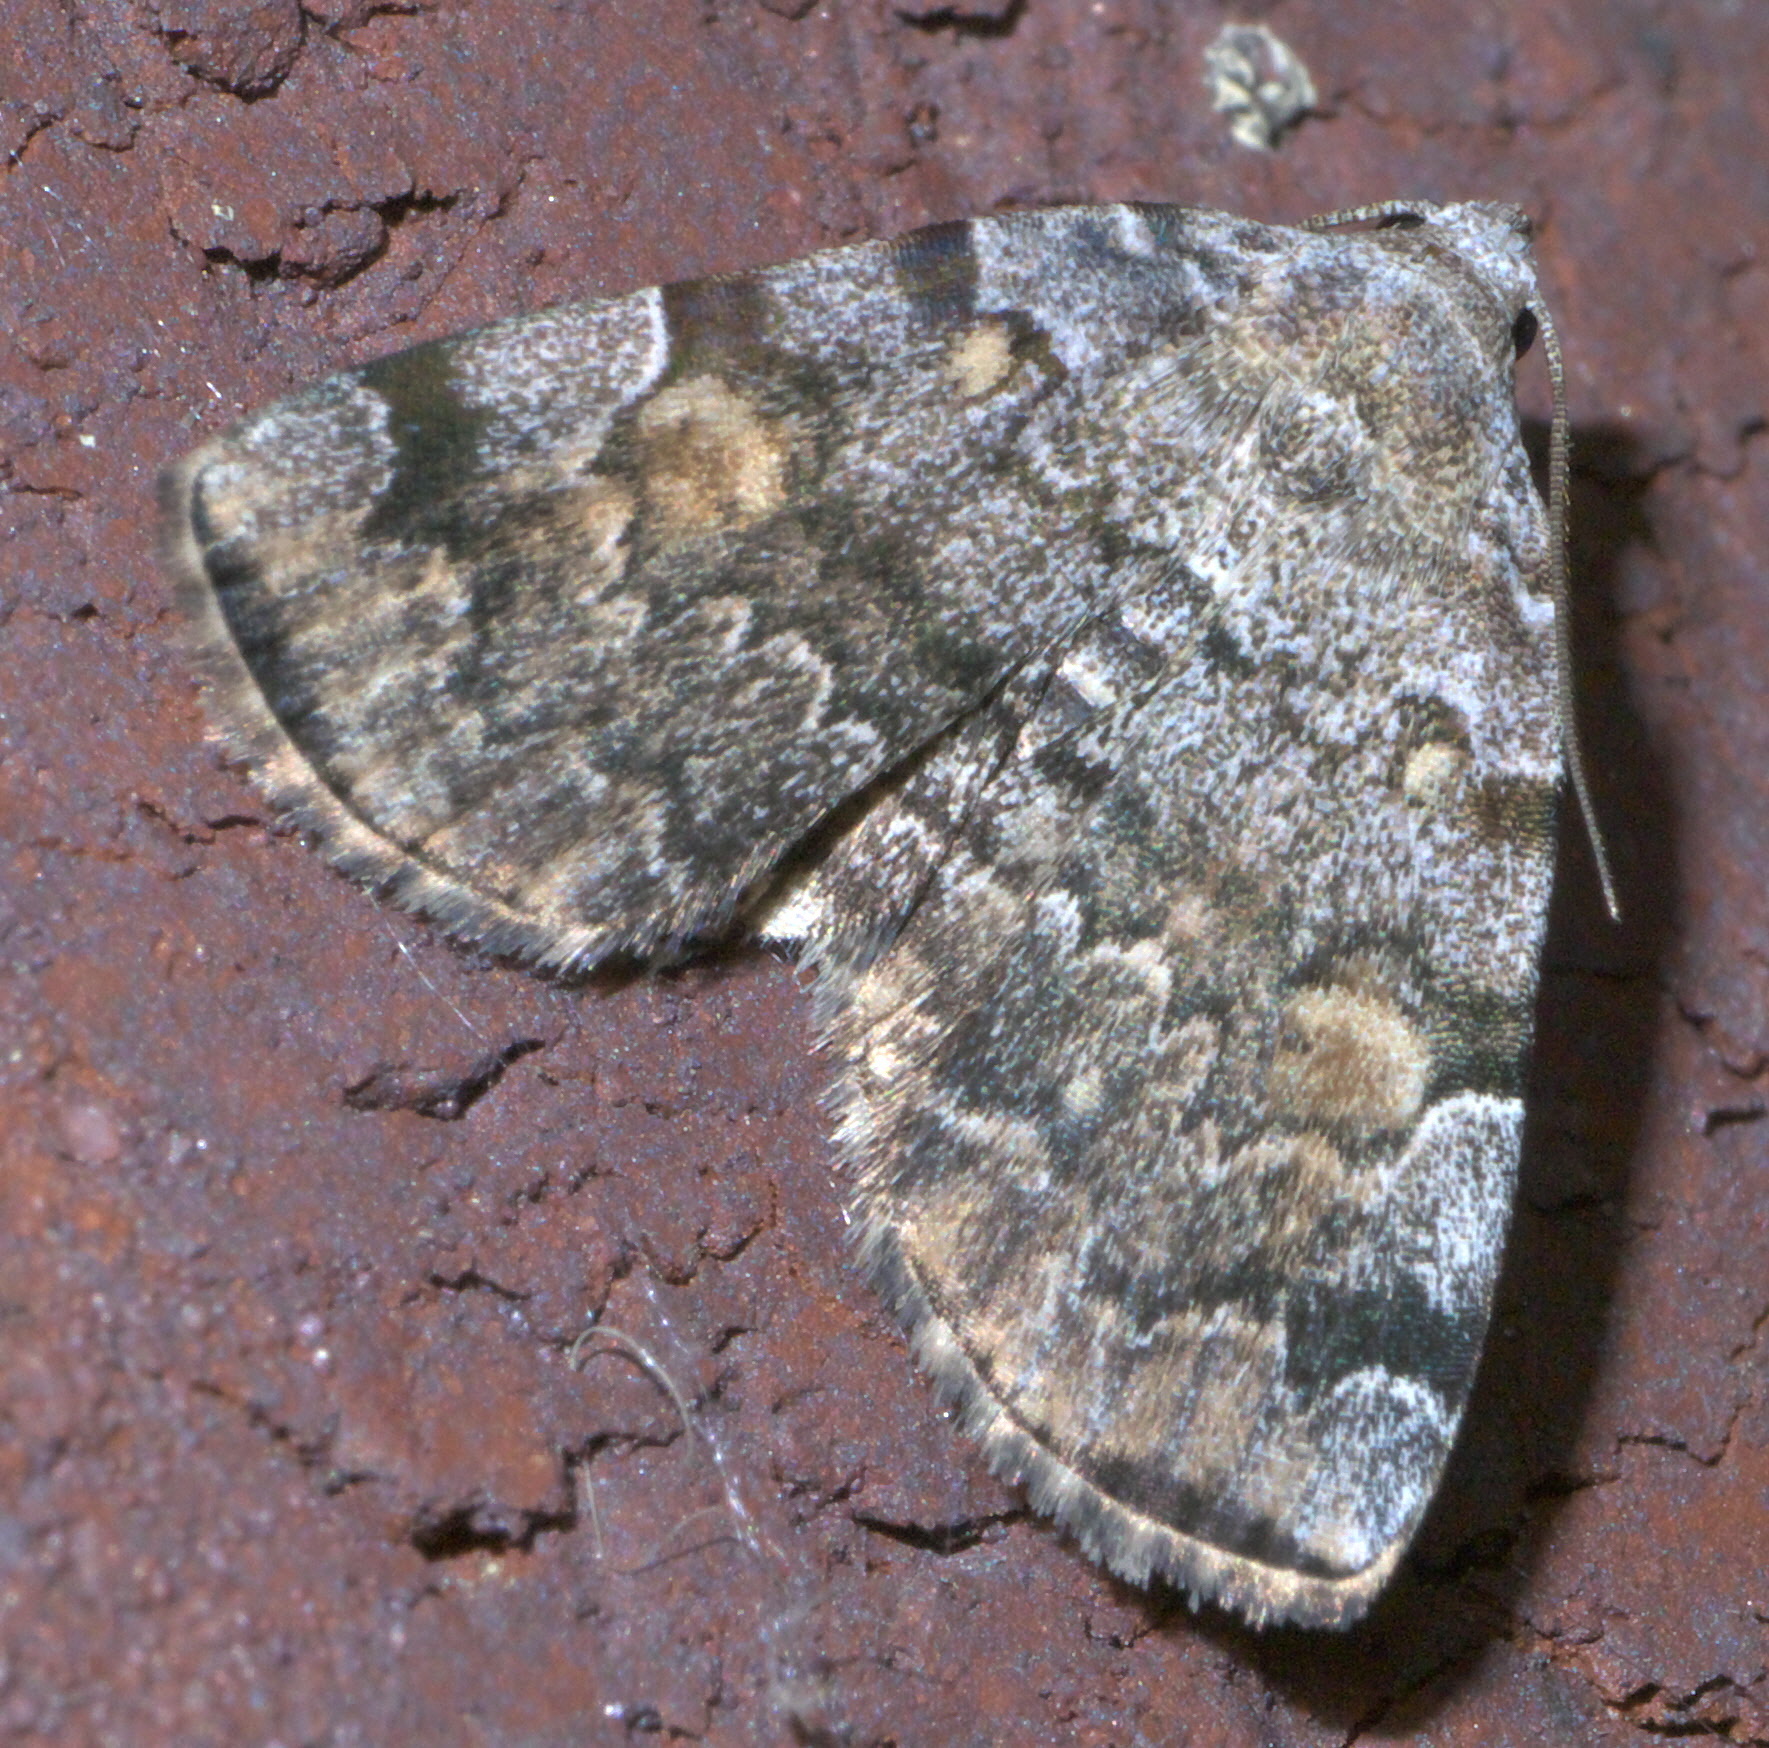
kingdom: Animalia
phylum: Arthropoda
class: Insecta
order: Lepidoptera
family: Erebidae
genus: Idia
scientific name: Idia americalis
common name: American idia moth
